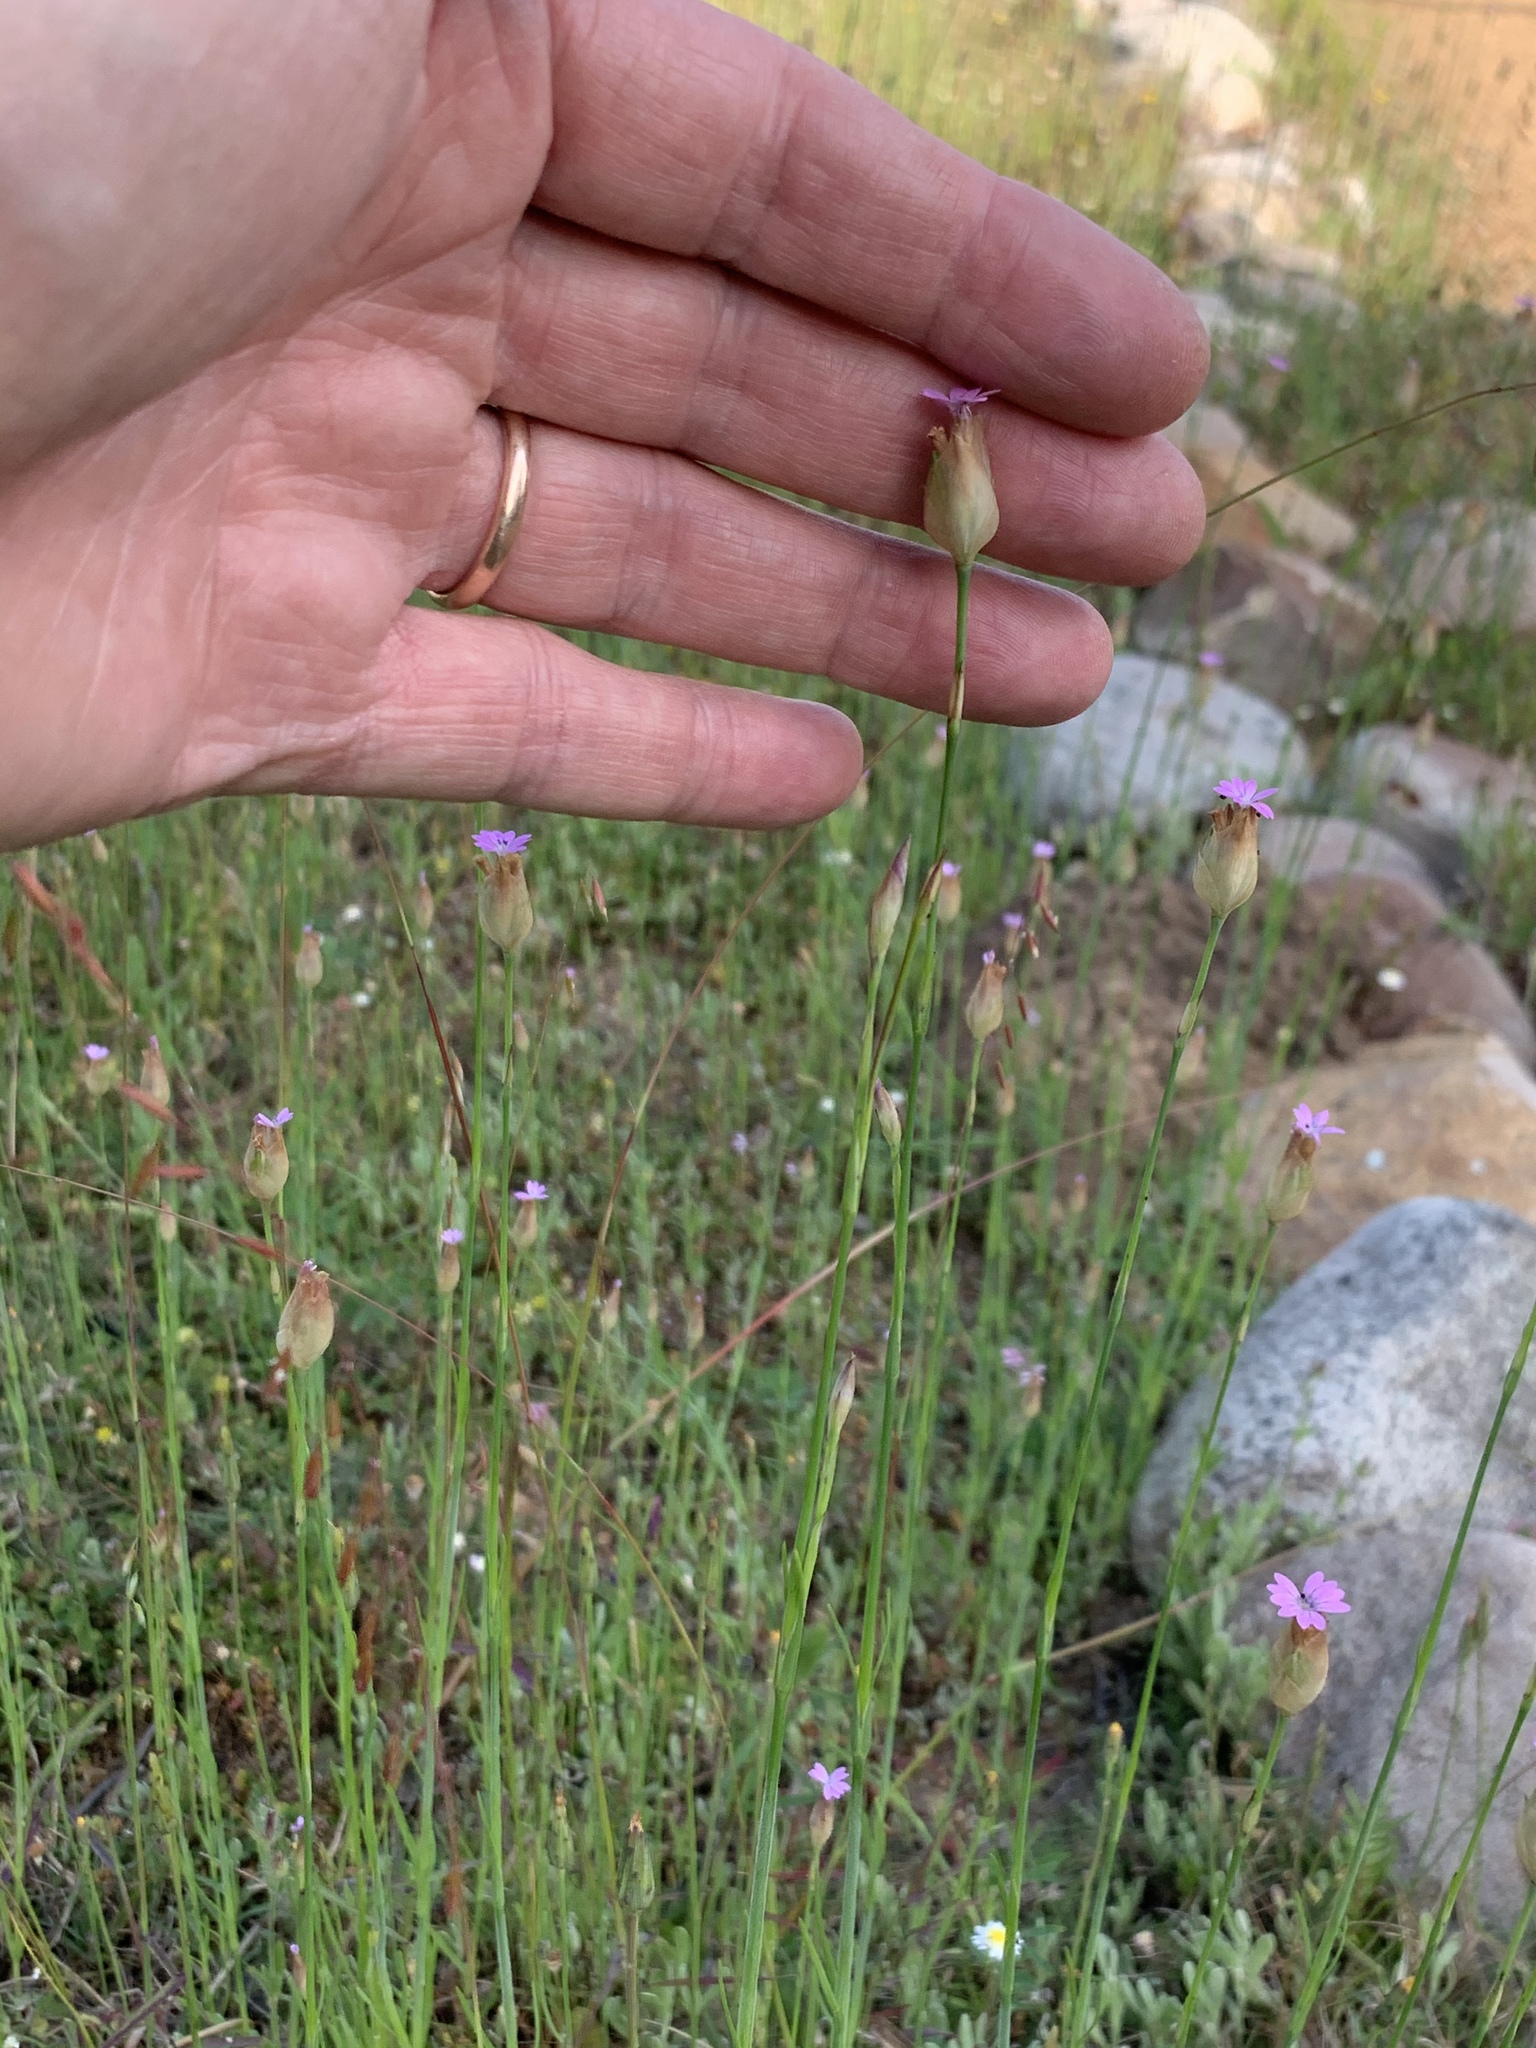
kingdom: Plantae
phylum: Tracheophyta
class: Magnoliopsida
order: Caryophyllales
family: Caryophyllaceae
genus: Petrorhagia
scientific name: Petrorhagia prolifera
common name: Proliferous pink
